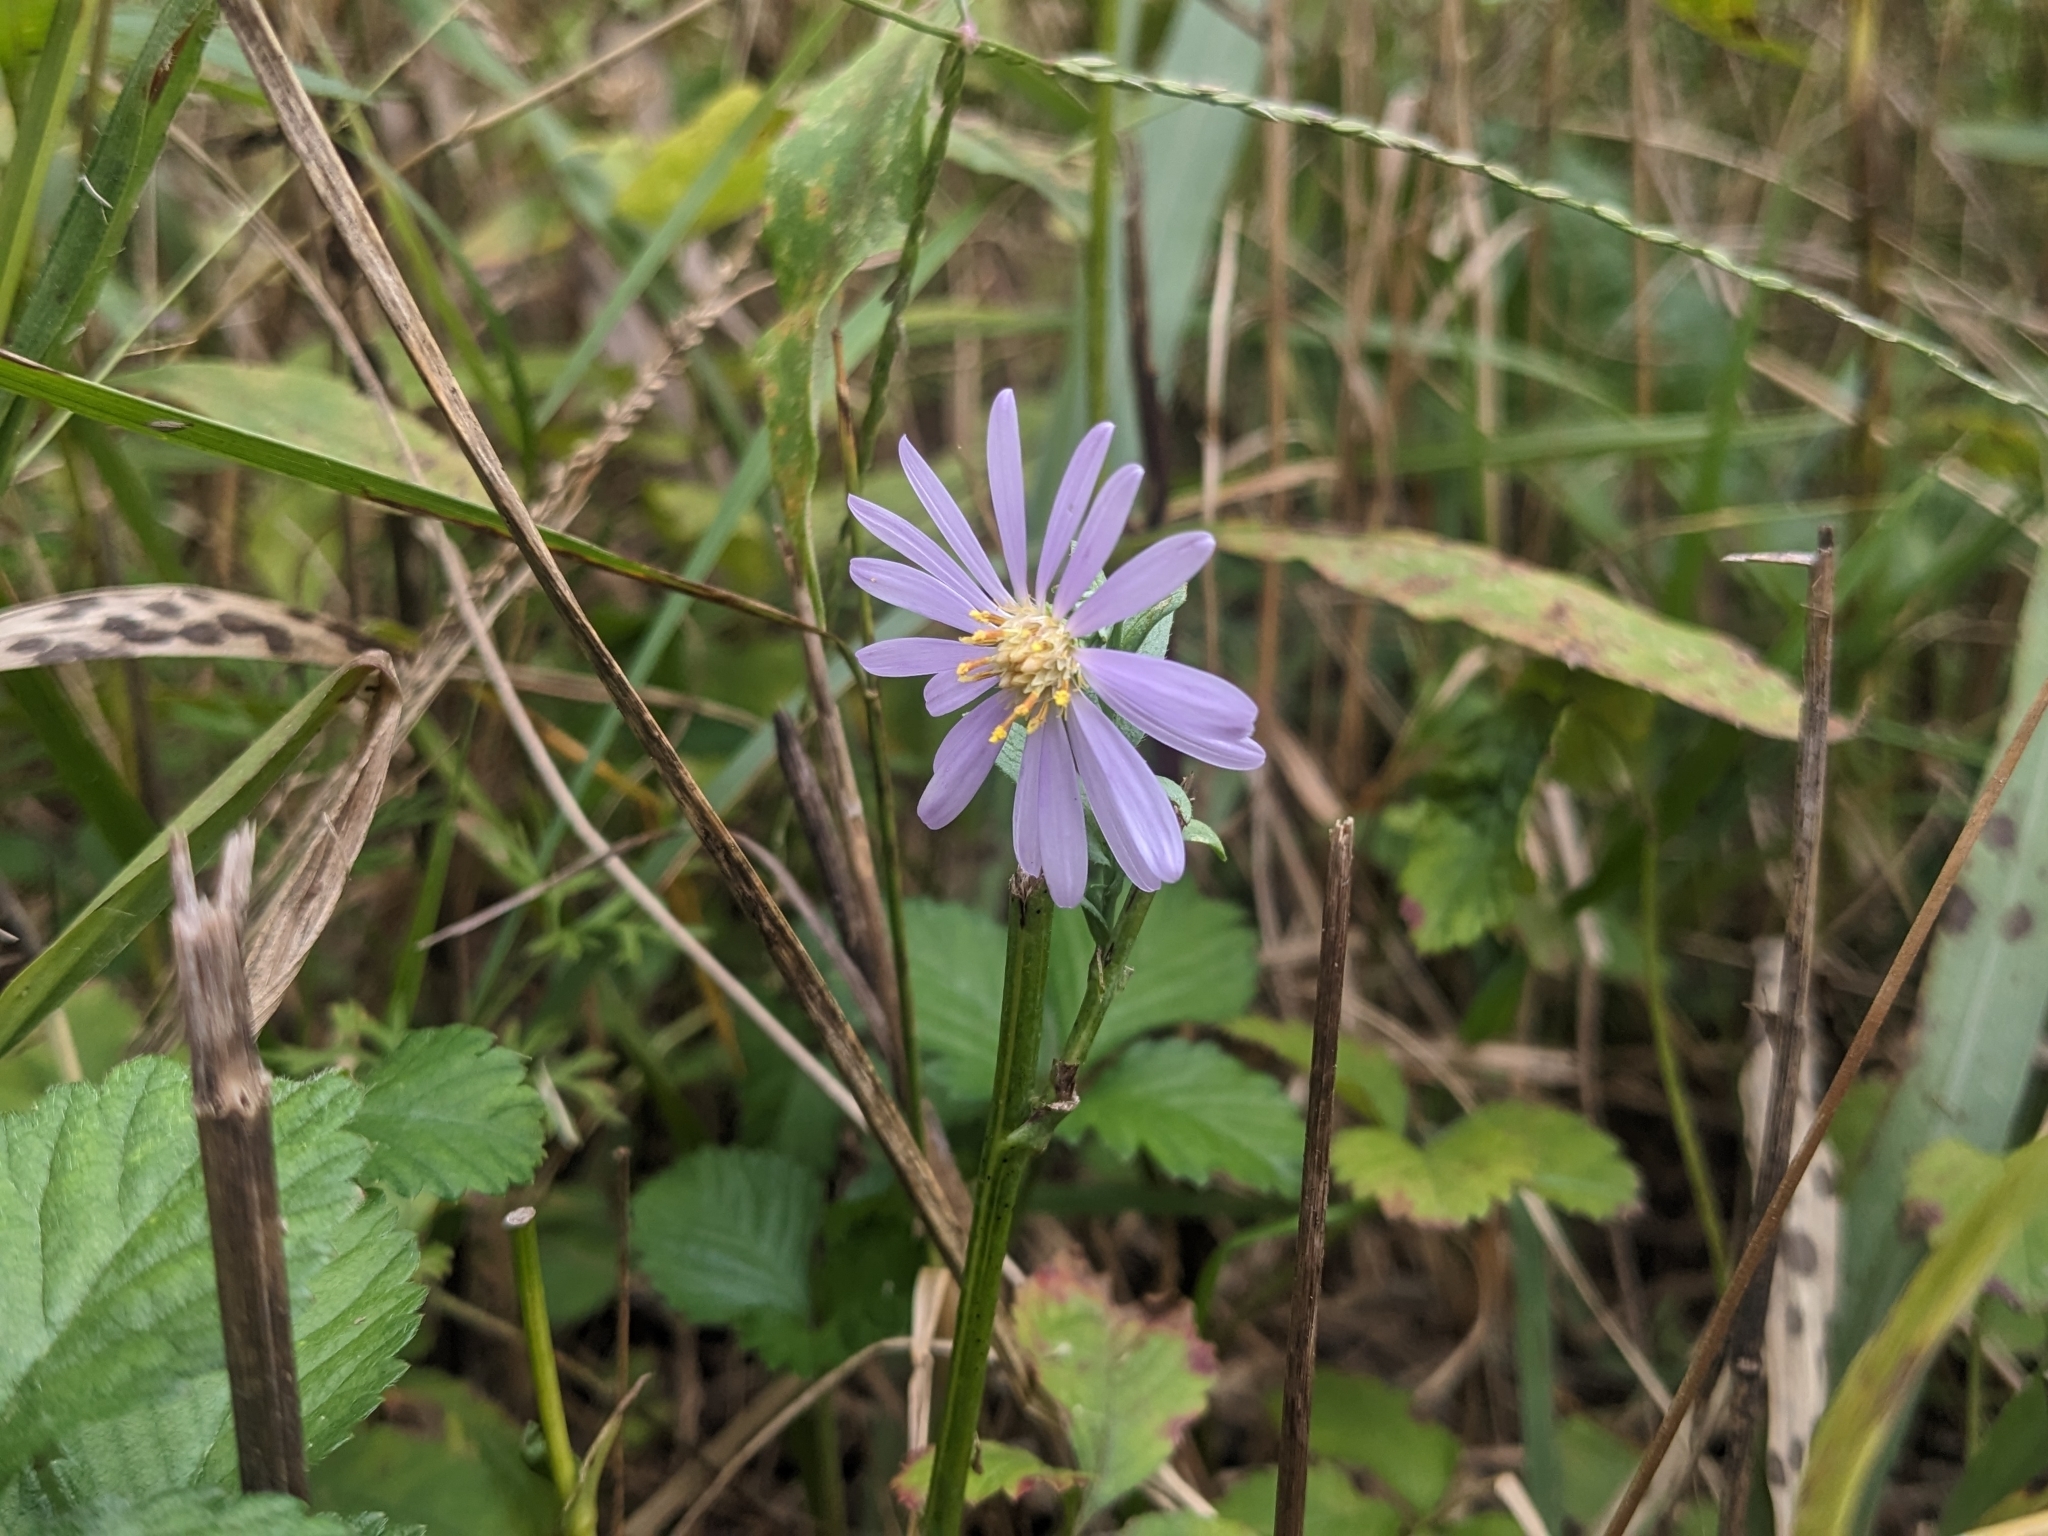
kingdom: Plantae
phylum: Tracheophyta
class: Magnoliopsida
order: Asterales
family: Asteraceae
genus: Symphyotrichum
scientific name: Symphyotrichum laeve
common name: Glaucous aster
